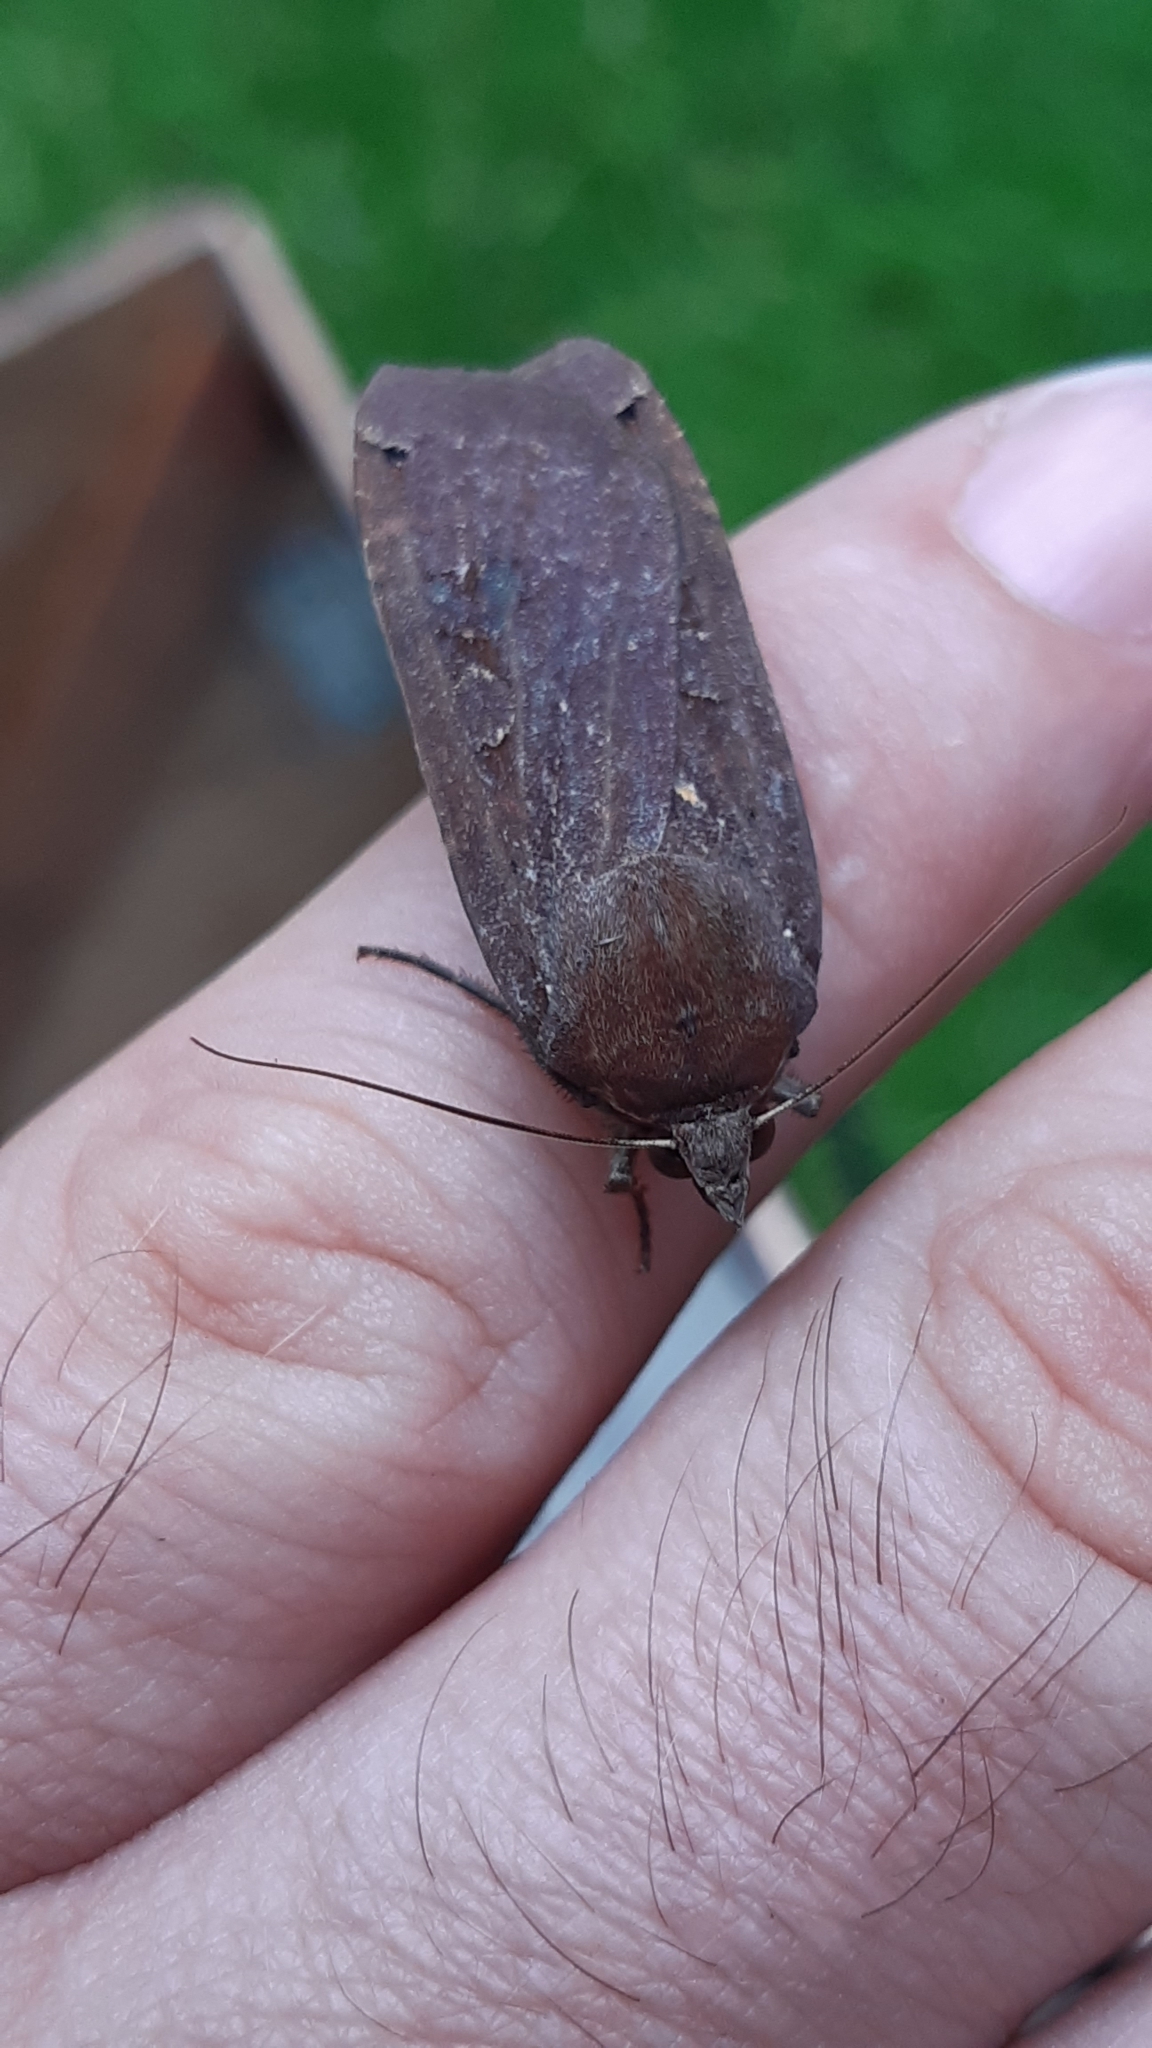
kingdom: Animalia
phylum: Arthropoda
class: Insecta
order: Lepidoptera
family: Noctuidae
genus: Noctua
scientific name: Noctua pronuba
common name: Large yellow underwing
